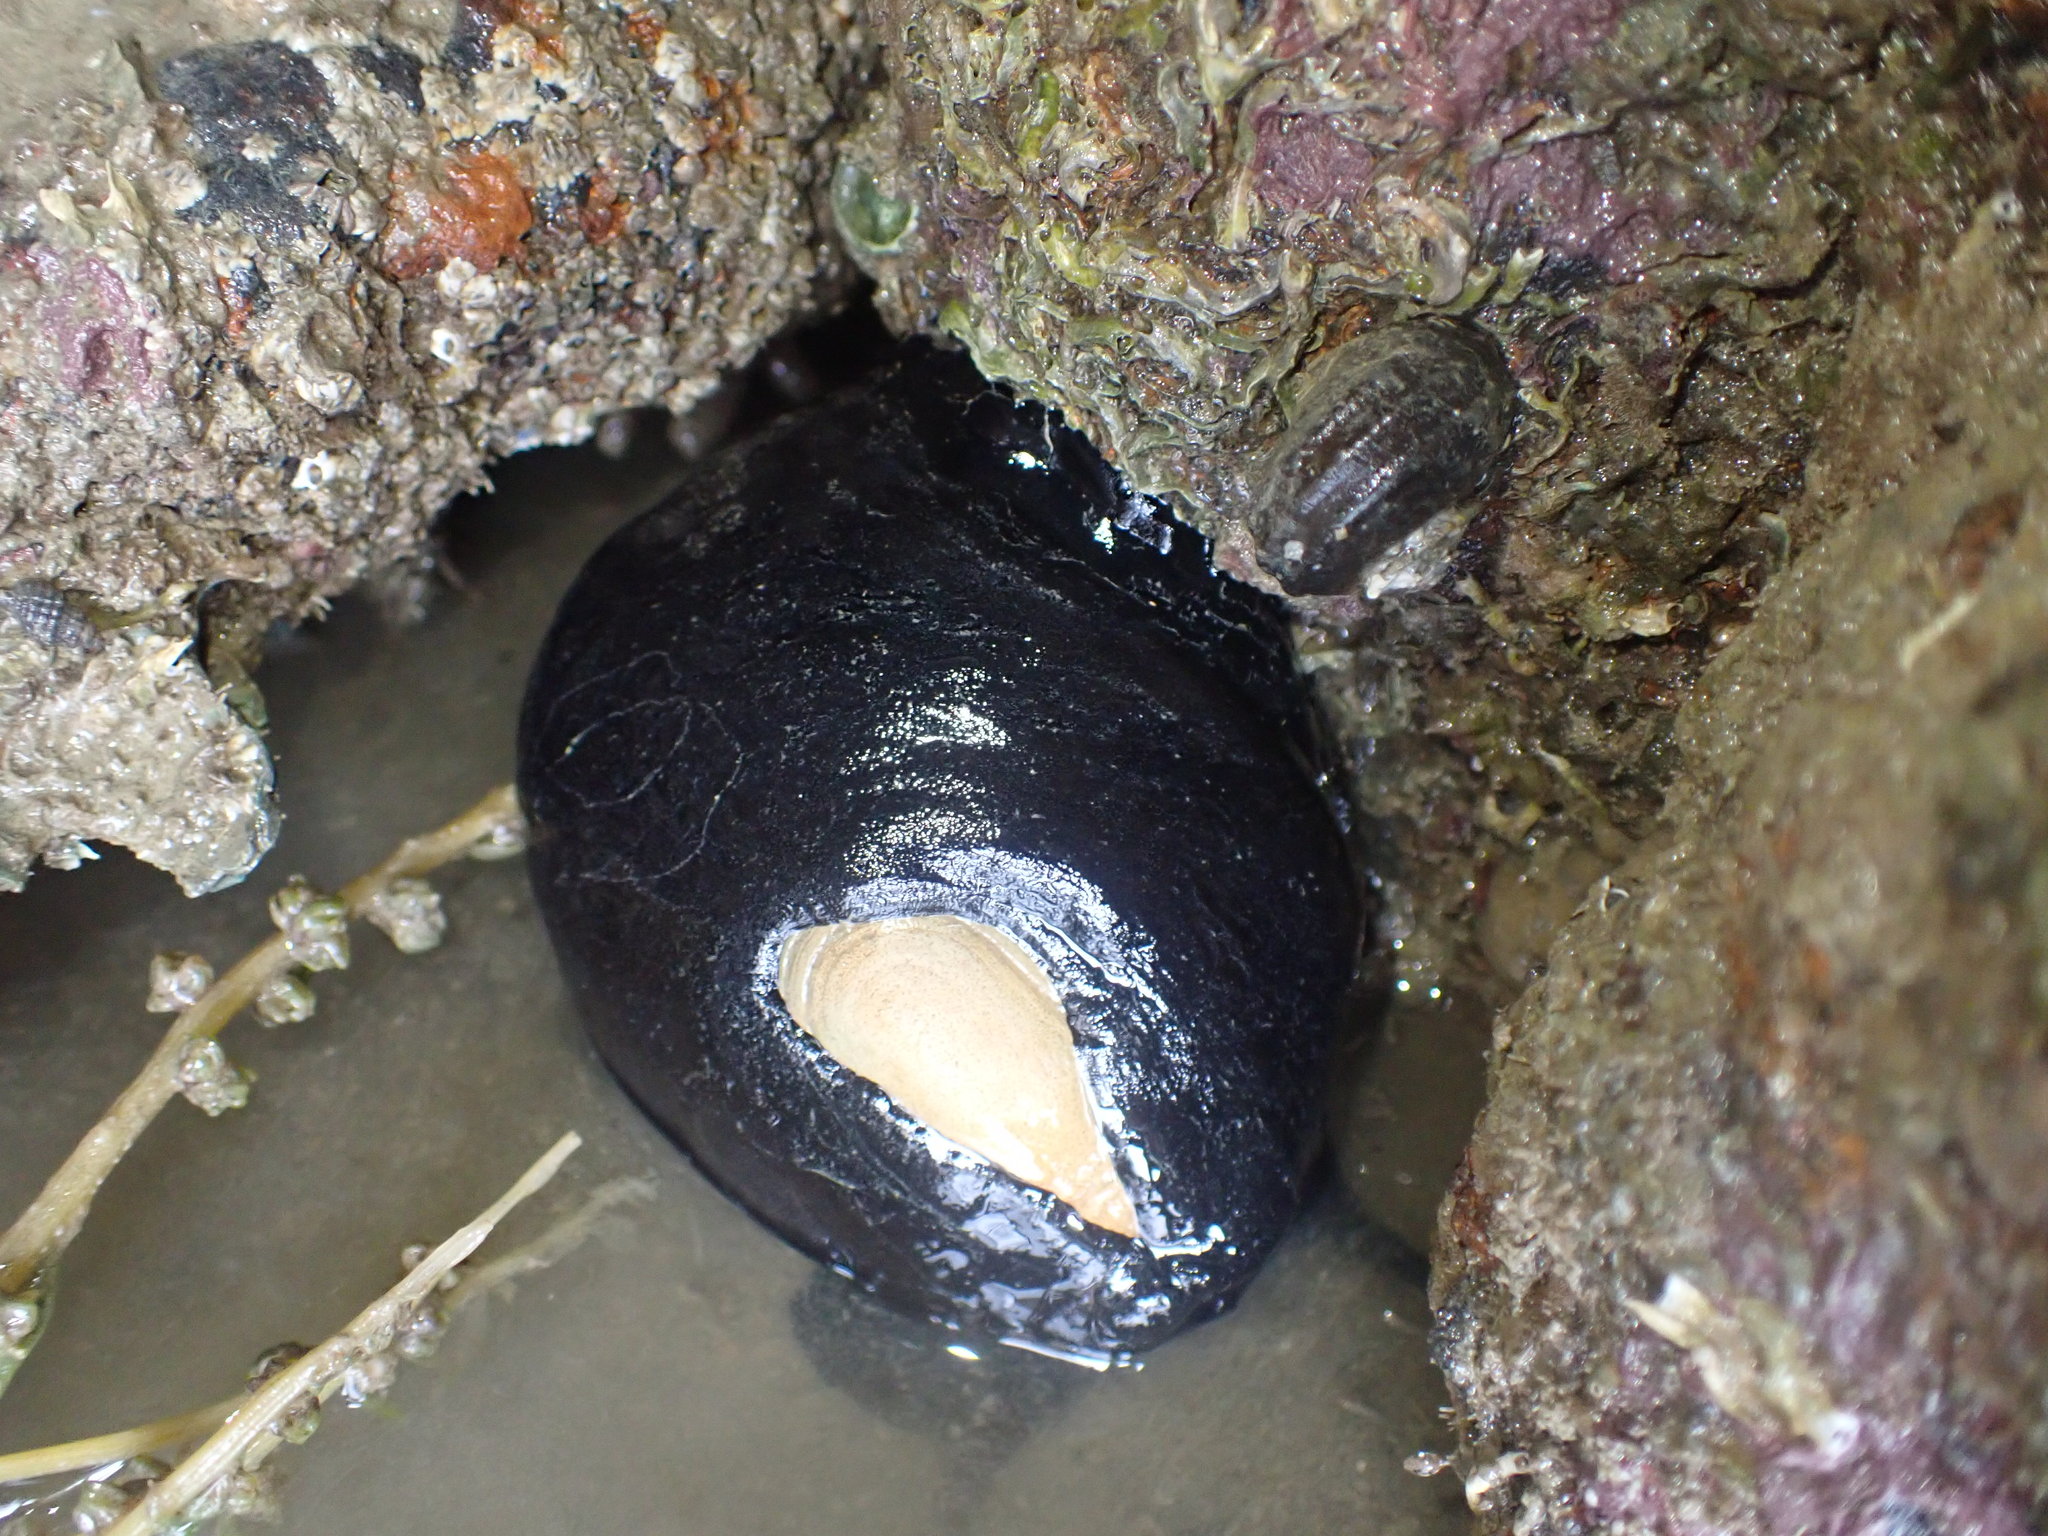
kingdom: Animalia
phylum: Mollusca
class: Gastropoda
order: Lepetellida
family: Fissurellidae
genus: Scutus
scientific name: Scutus breviculus
